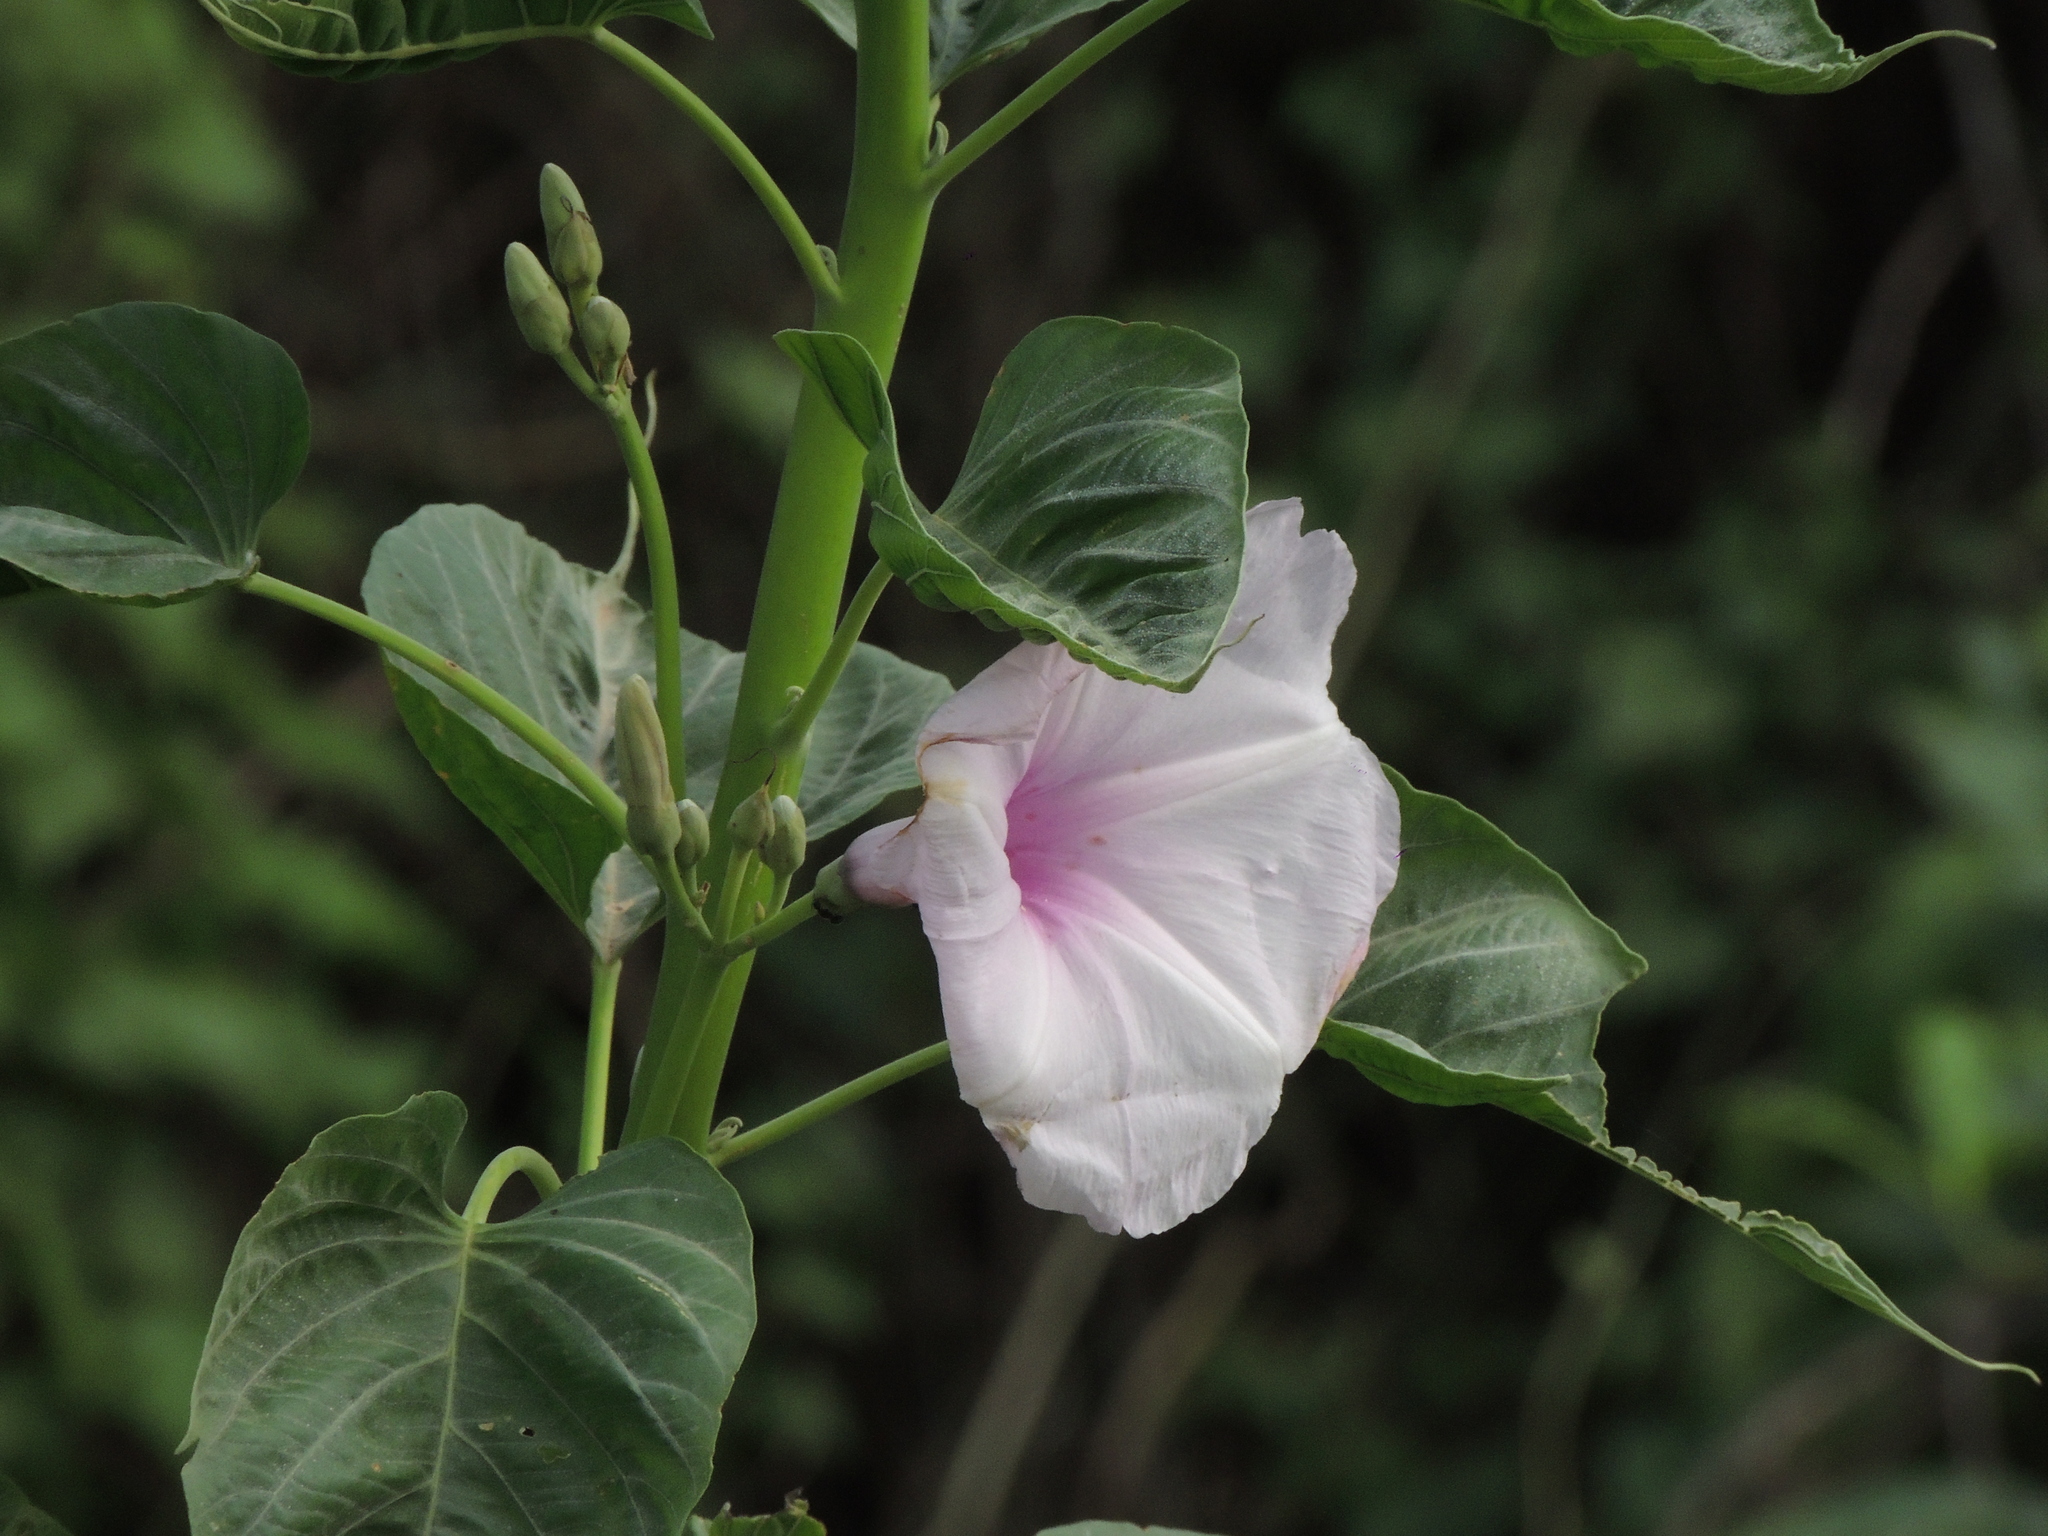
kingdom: Plantae
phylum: Tracheophyta
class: Magnoliopsida
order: Solanales
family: Convolvulaceae
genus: Ipomoea
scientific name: Ipomoea carnea
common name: Morning-glory
